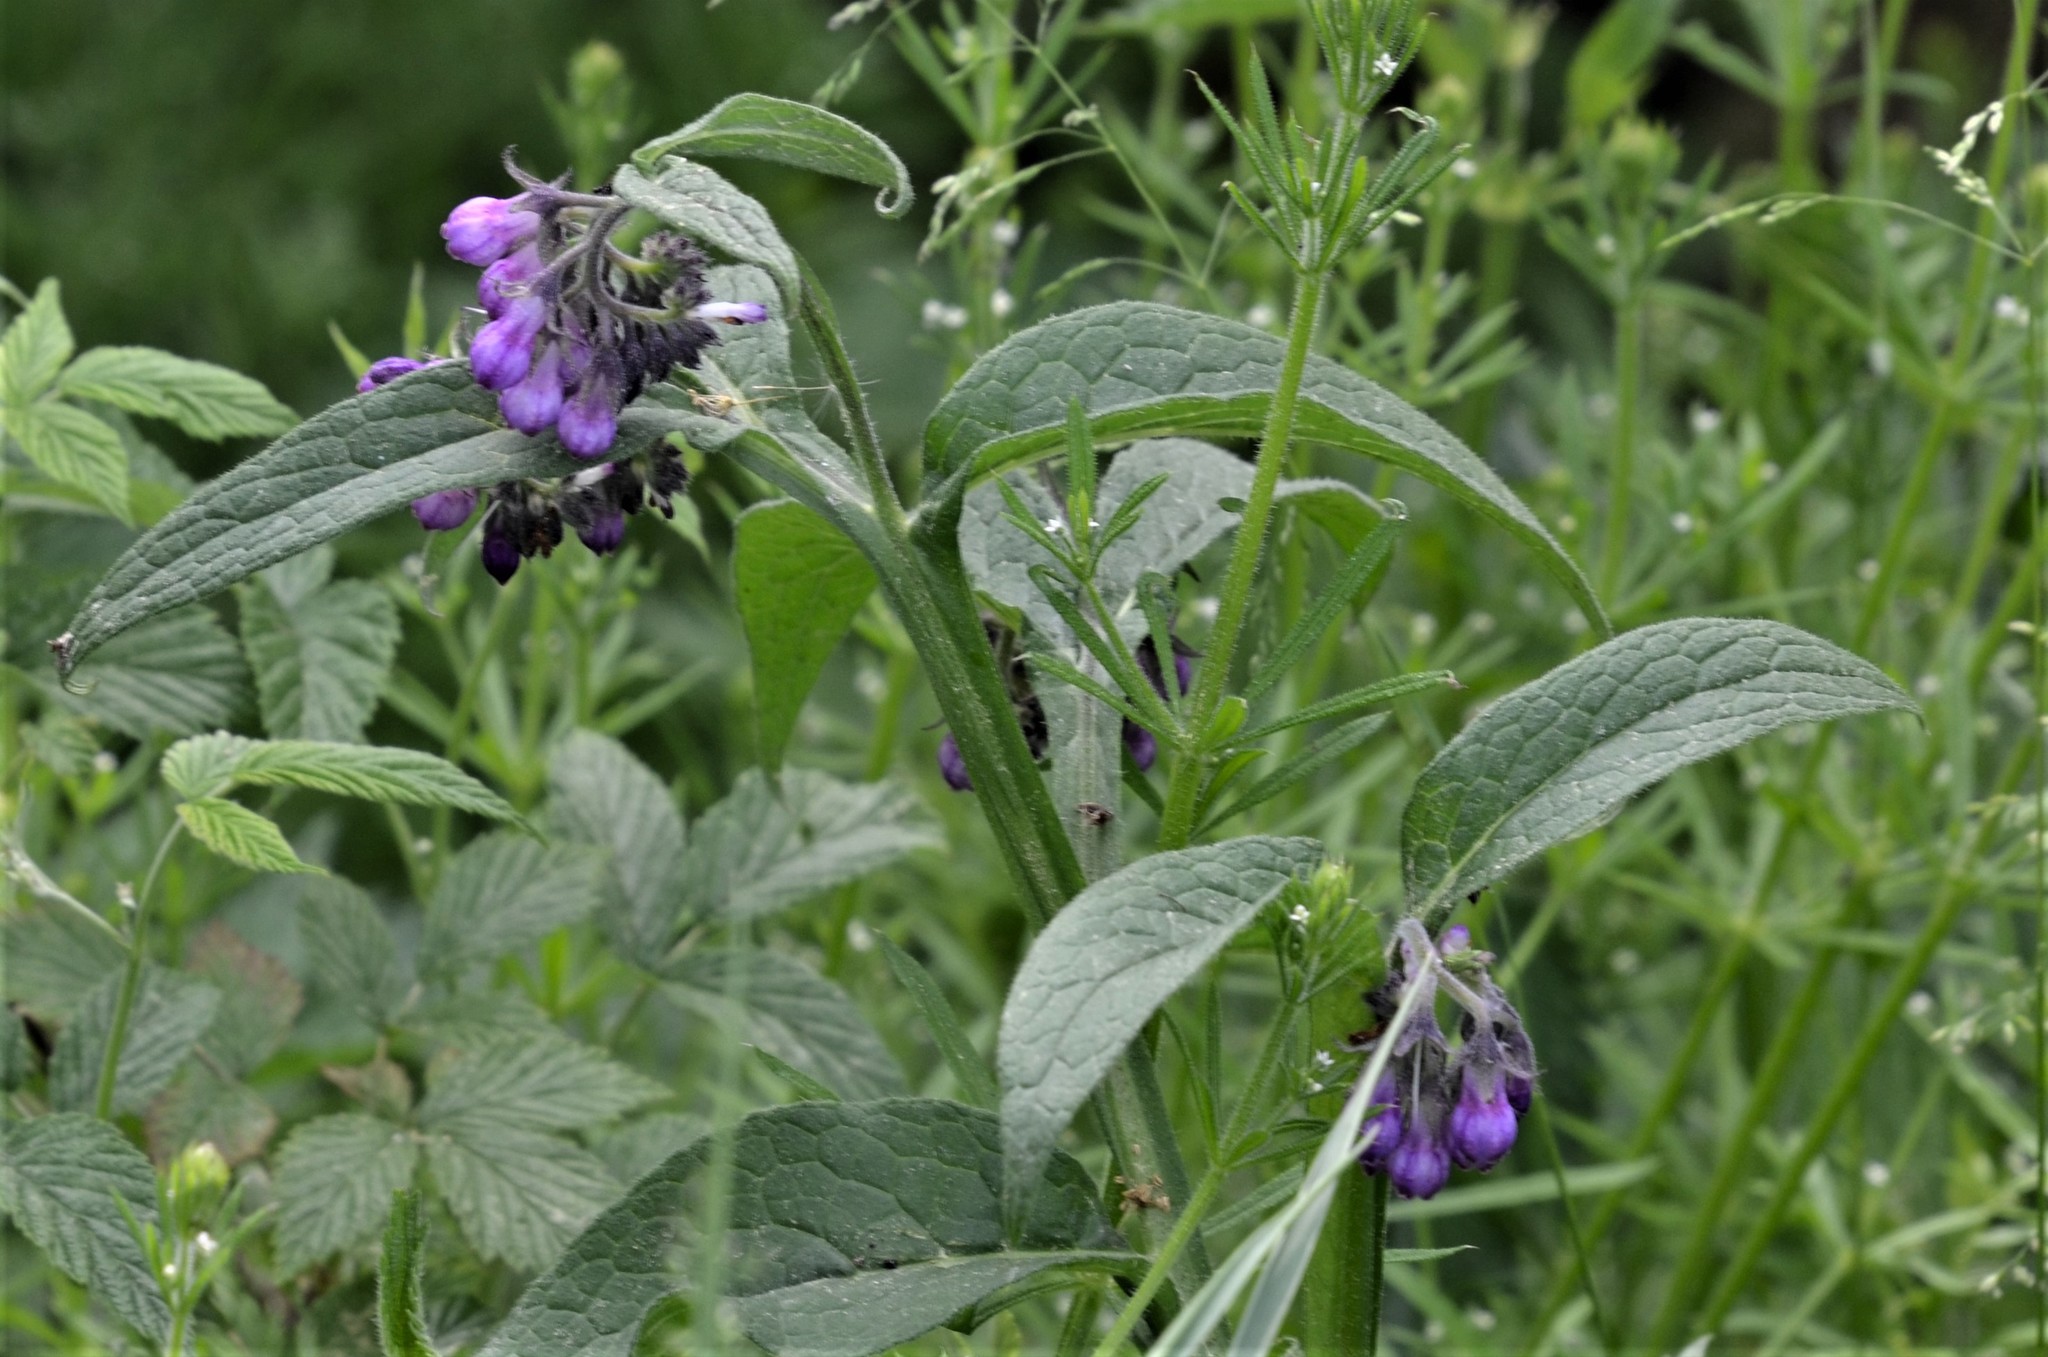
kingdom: Plantae
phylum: Tracheophyta
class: Magnoliopsida
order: Boraginales
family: Boraginaceae
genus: Symphytum
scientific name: Symphytum officinale
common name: Common comfrey
